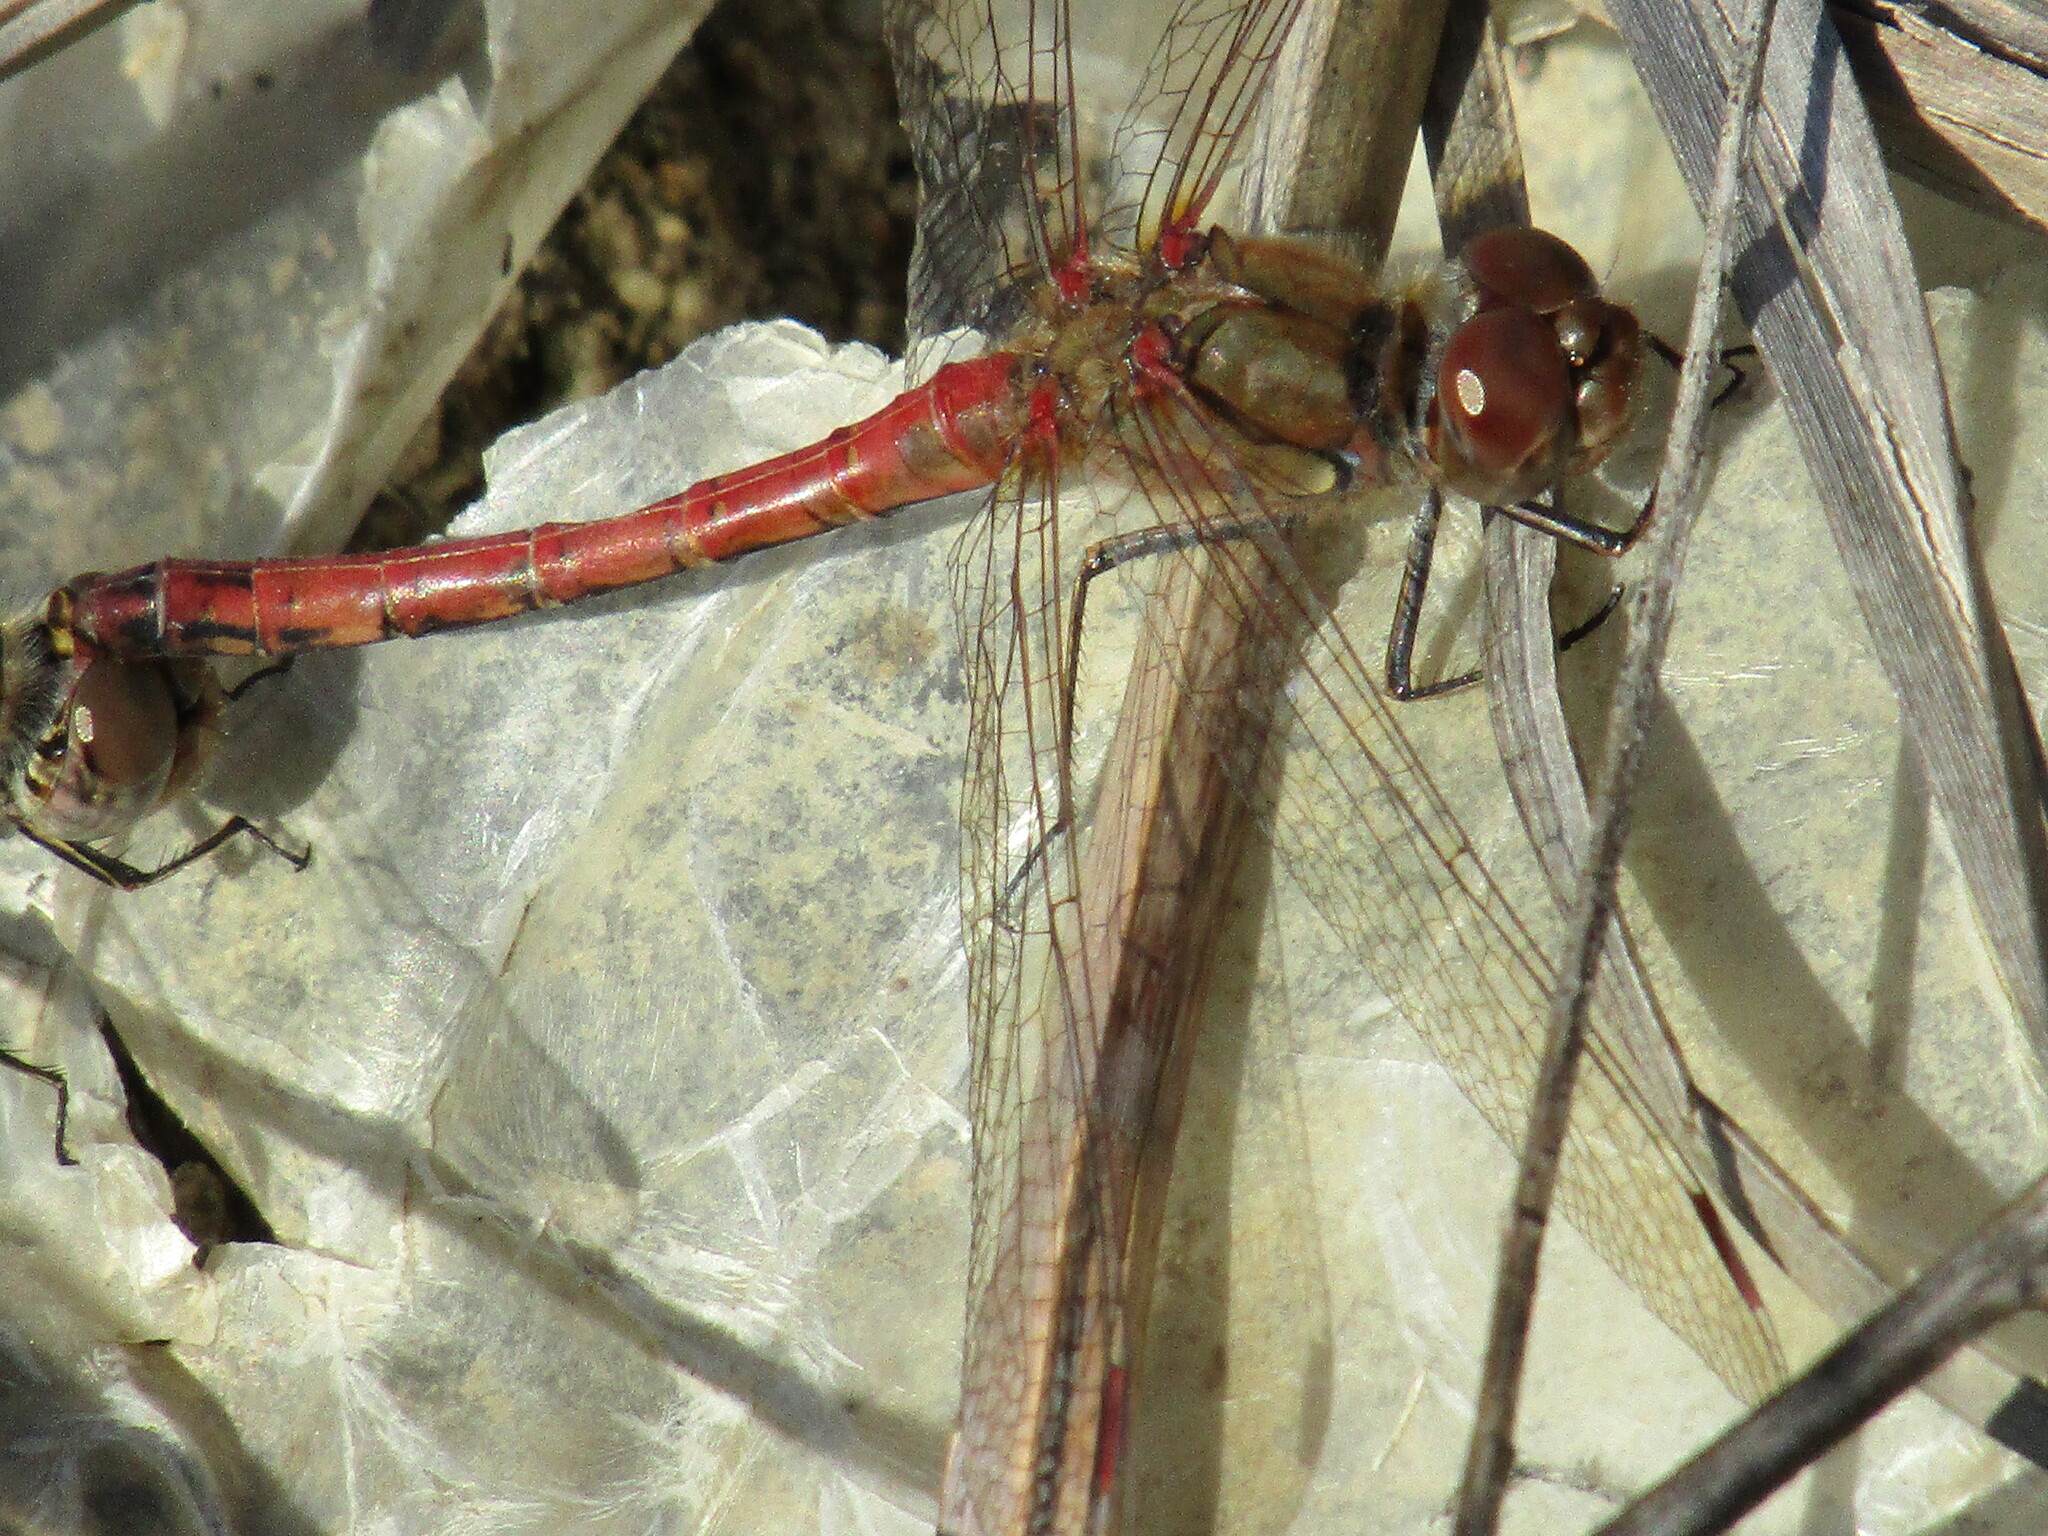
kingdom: Animalia
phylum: Arthropoda
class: Insecta
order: Odonata
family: Libellulidae
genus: Sympetrum
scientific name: Sympetrum striolatum
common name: Common darter
